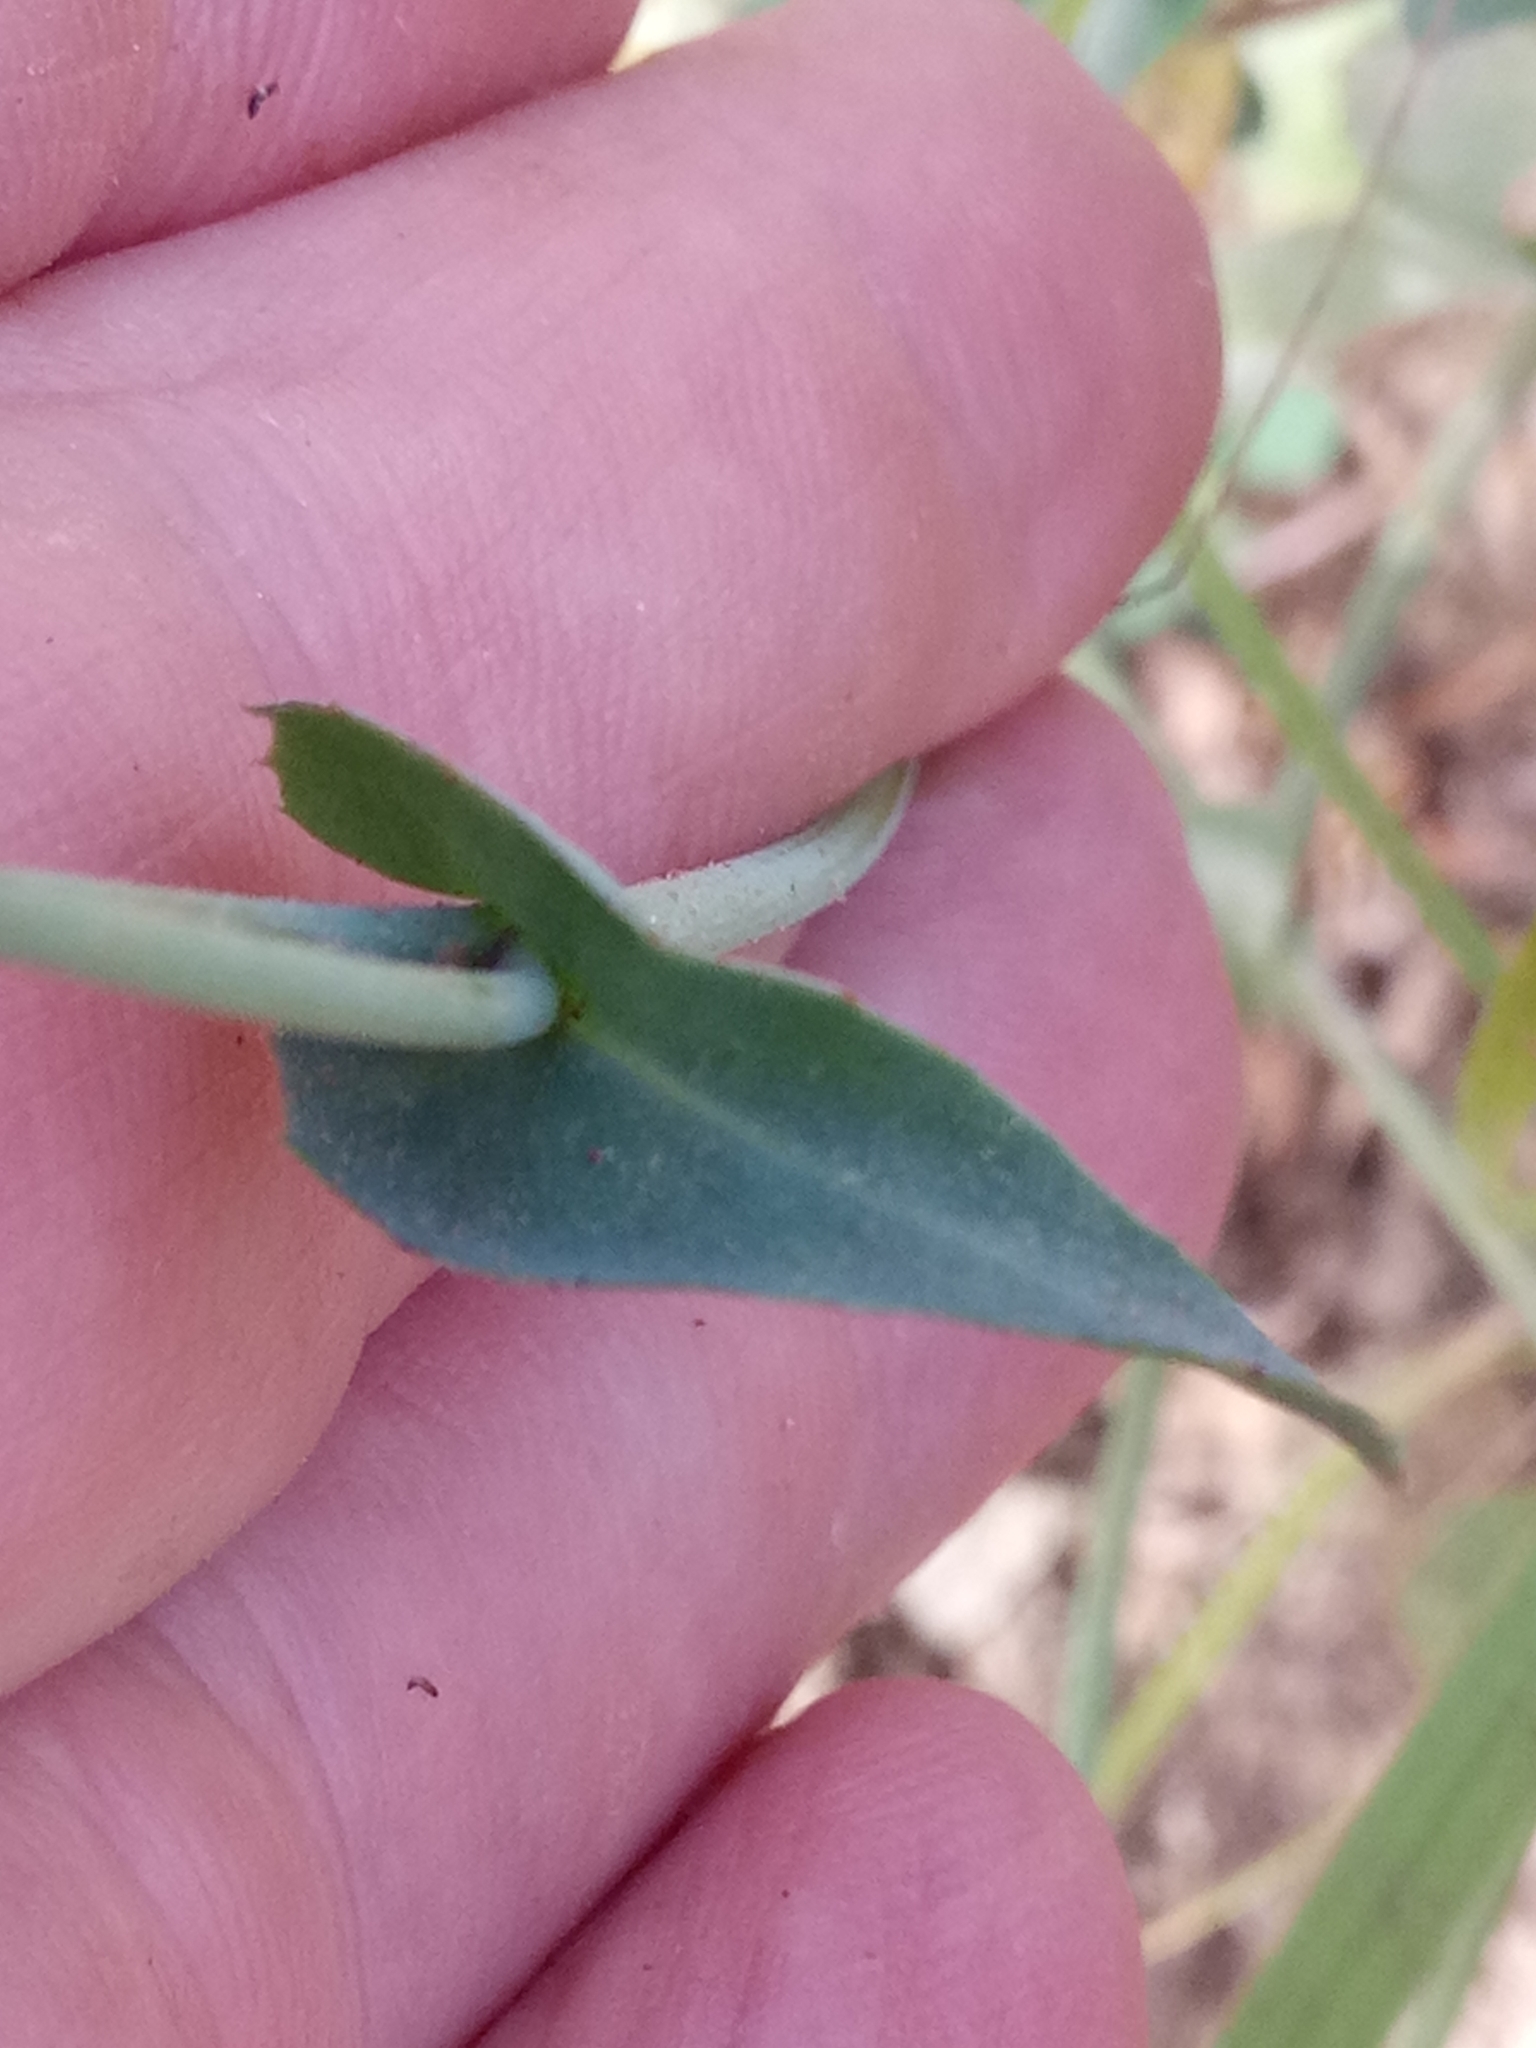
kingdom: Plantae
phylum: Tracheophyta
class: Magnoliopsida
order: Asterales
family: Asteraceae
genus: Reichardia
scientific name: Reichardia picroides
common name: Common brighteyes
